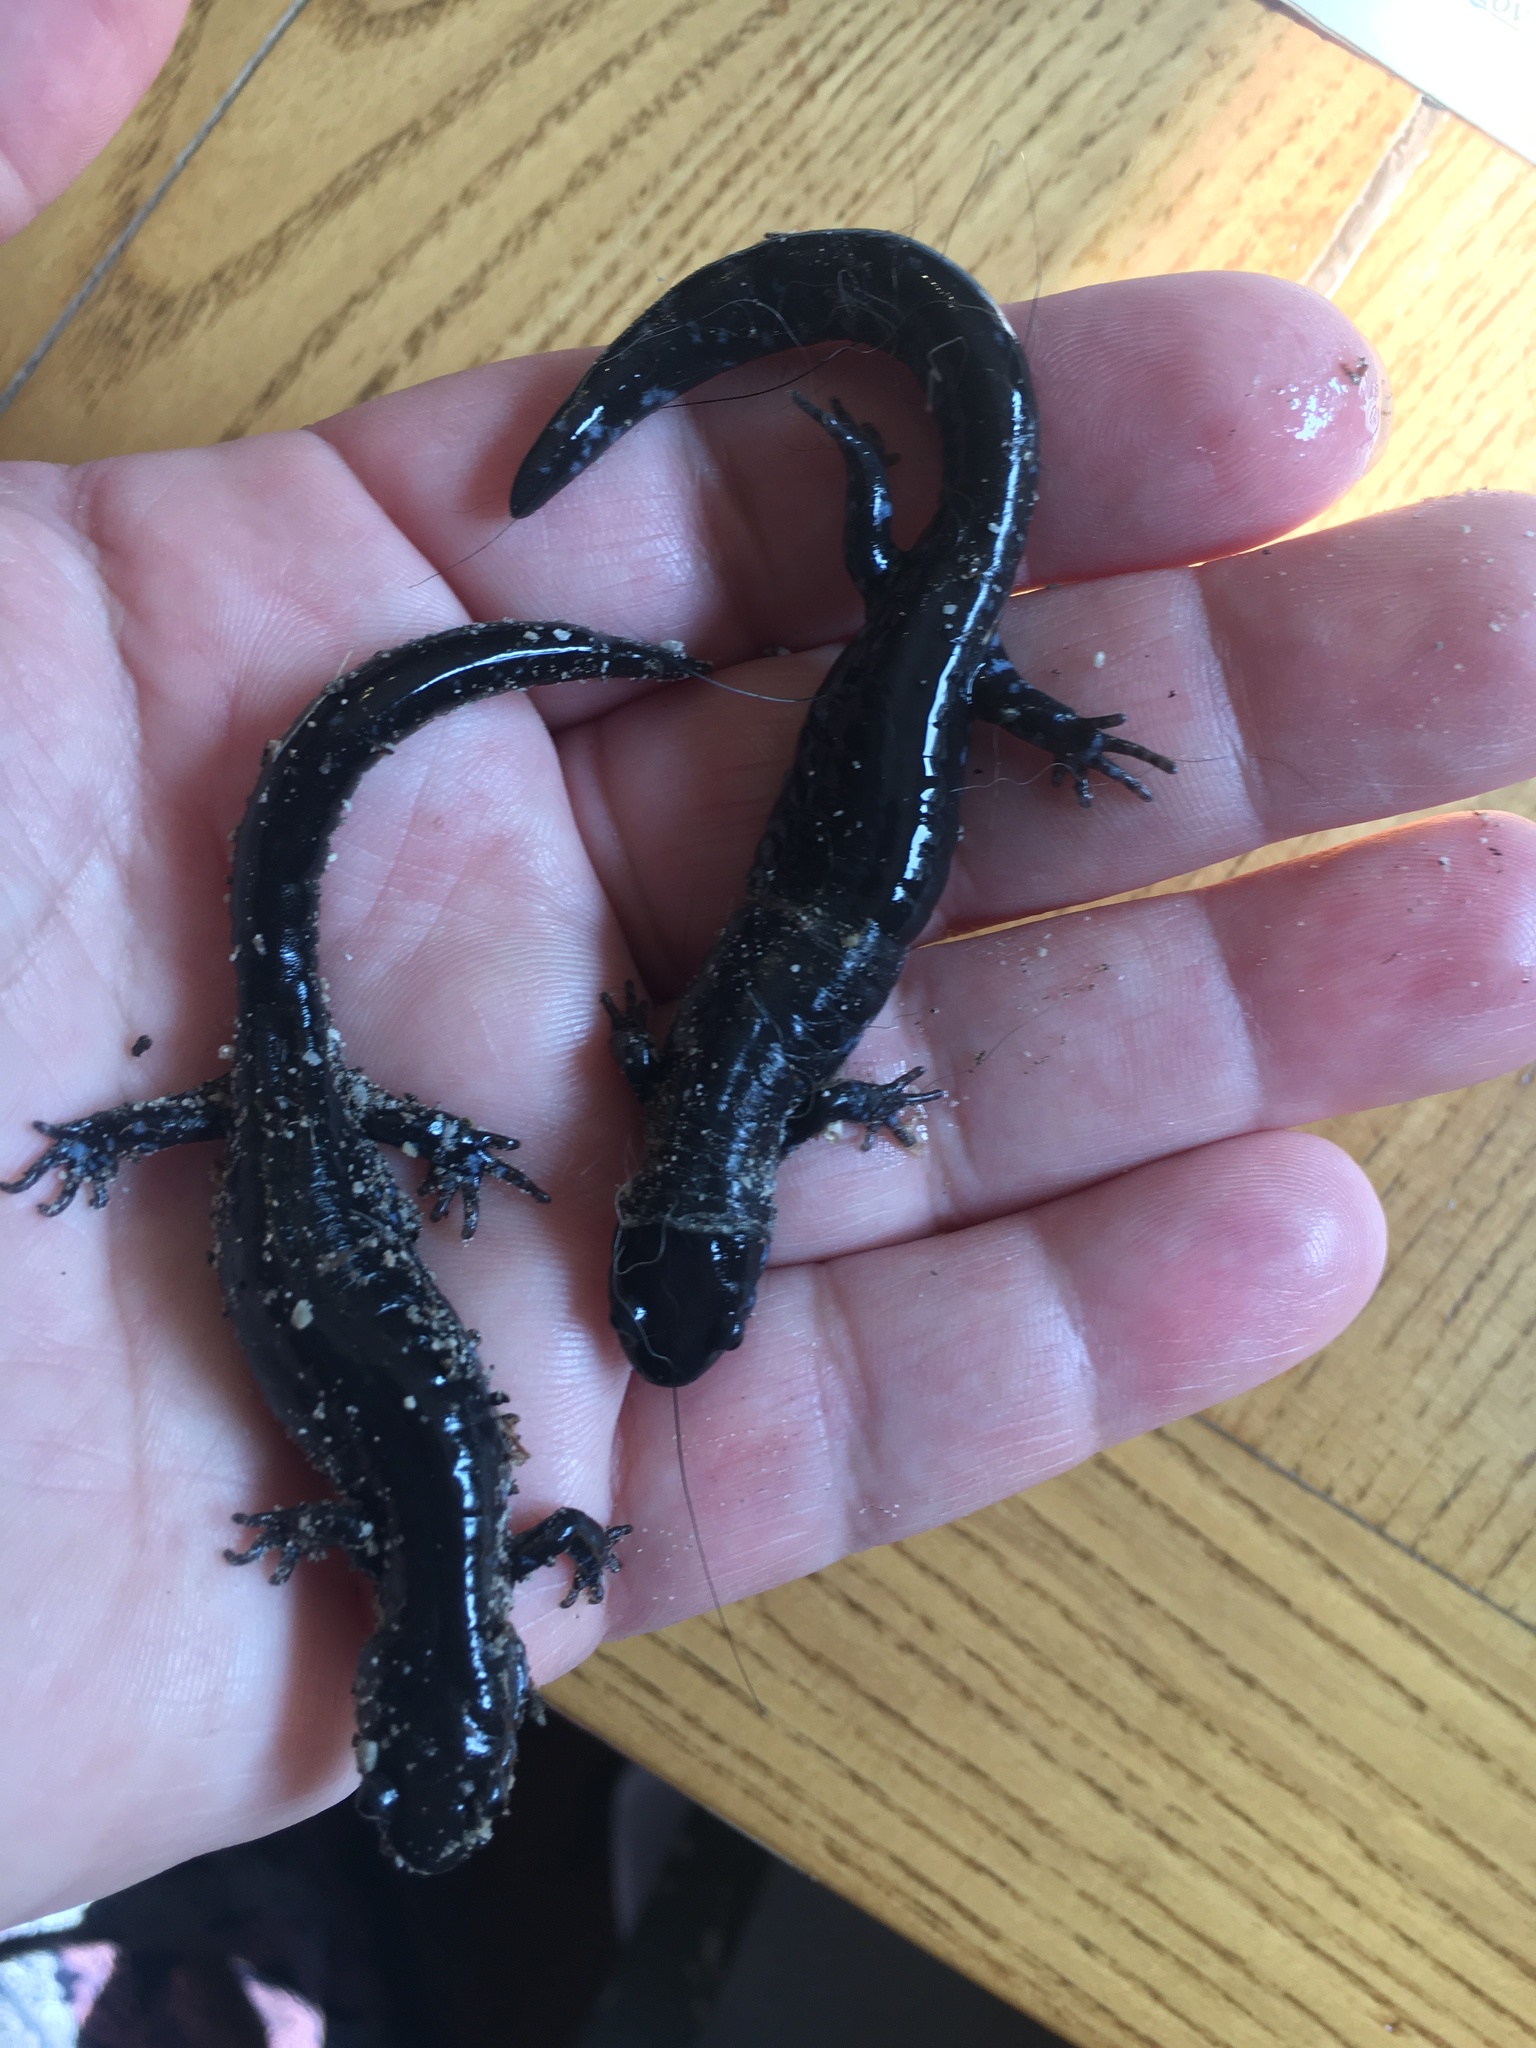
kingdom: Animalia
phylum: Chordata
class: Amphibia
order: Caudata
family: Ambystomatidae
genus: Ambystoma
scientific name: Ambystoma laterale
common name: Blue-spotted salamander
